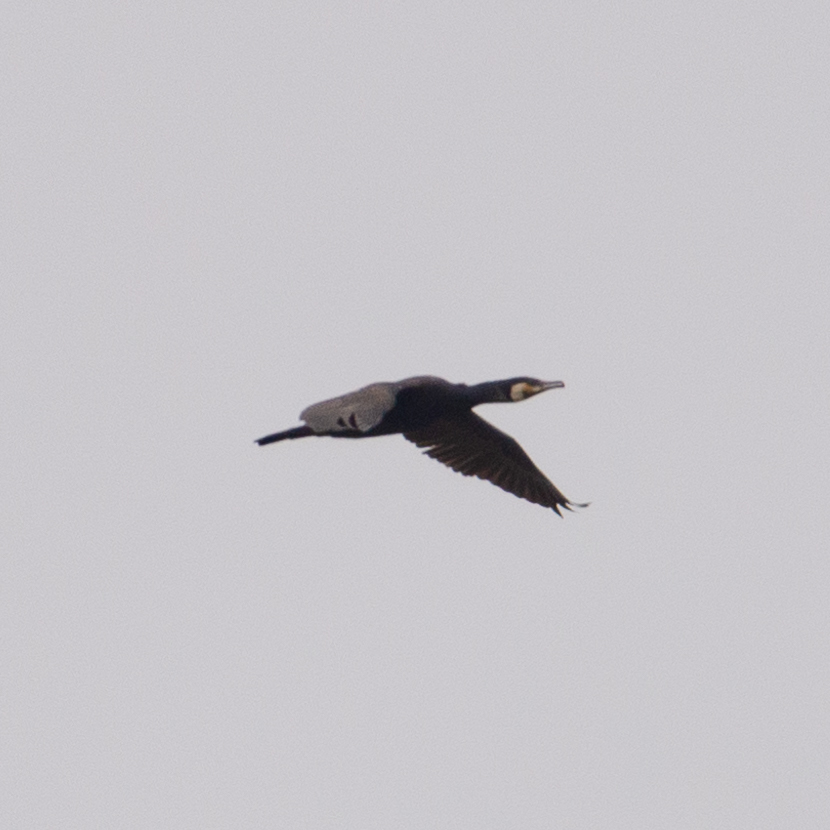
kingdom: Animalia
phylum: Chordata
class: Aves
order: Suliformes
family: Phalacrocoracidae
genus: Phalacrocorax
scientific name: Phalacrocorax carbo
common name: Great cormorant
